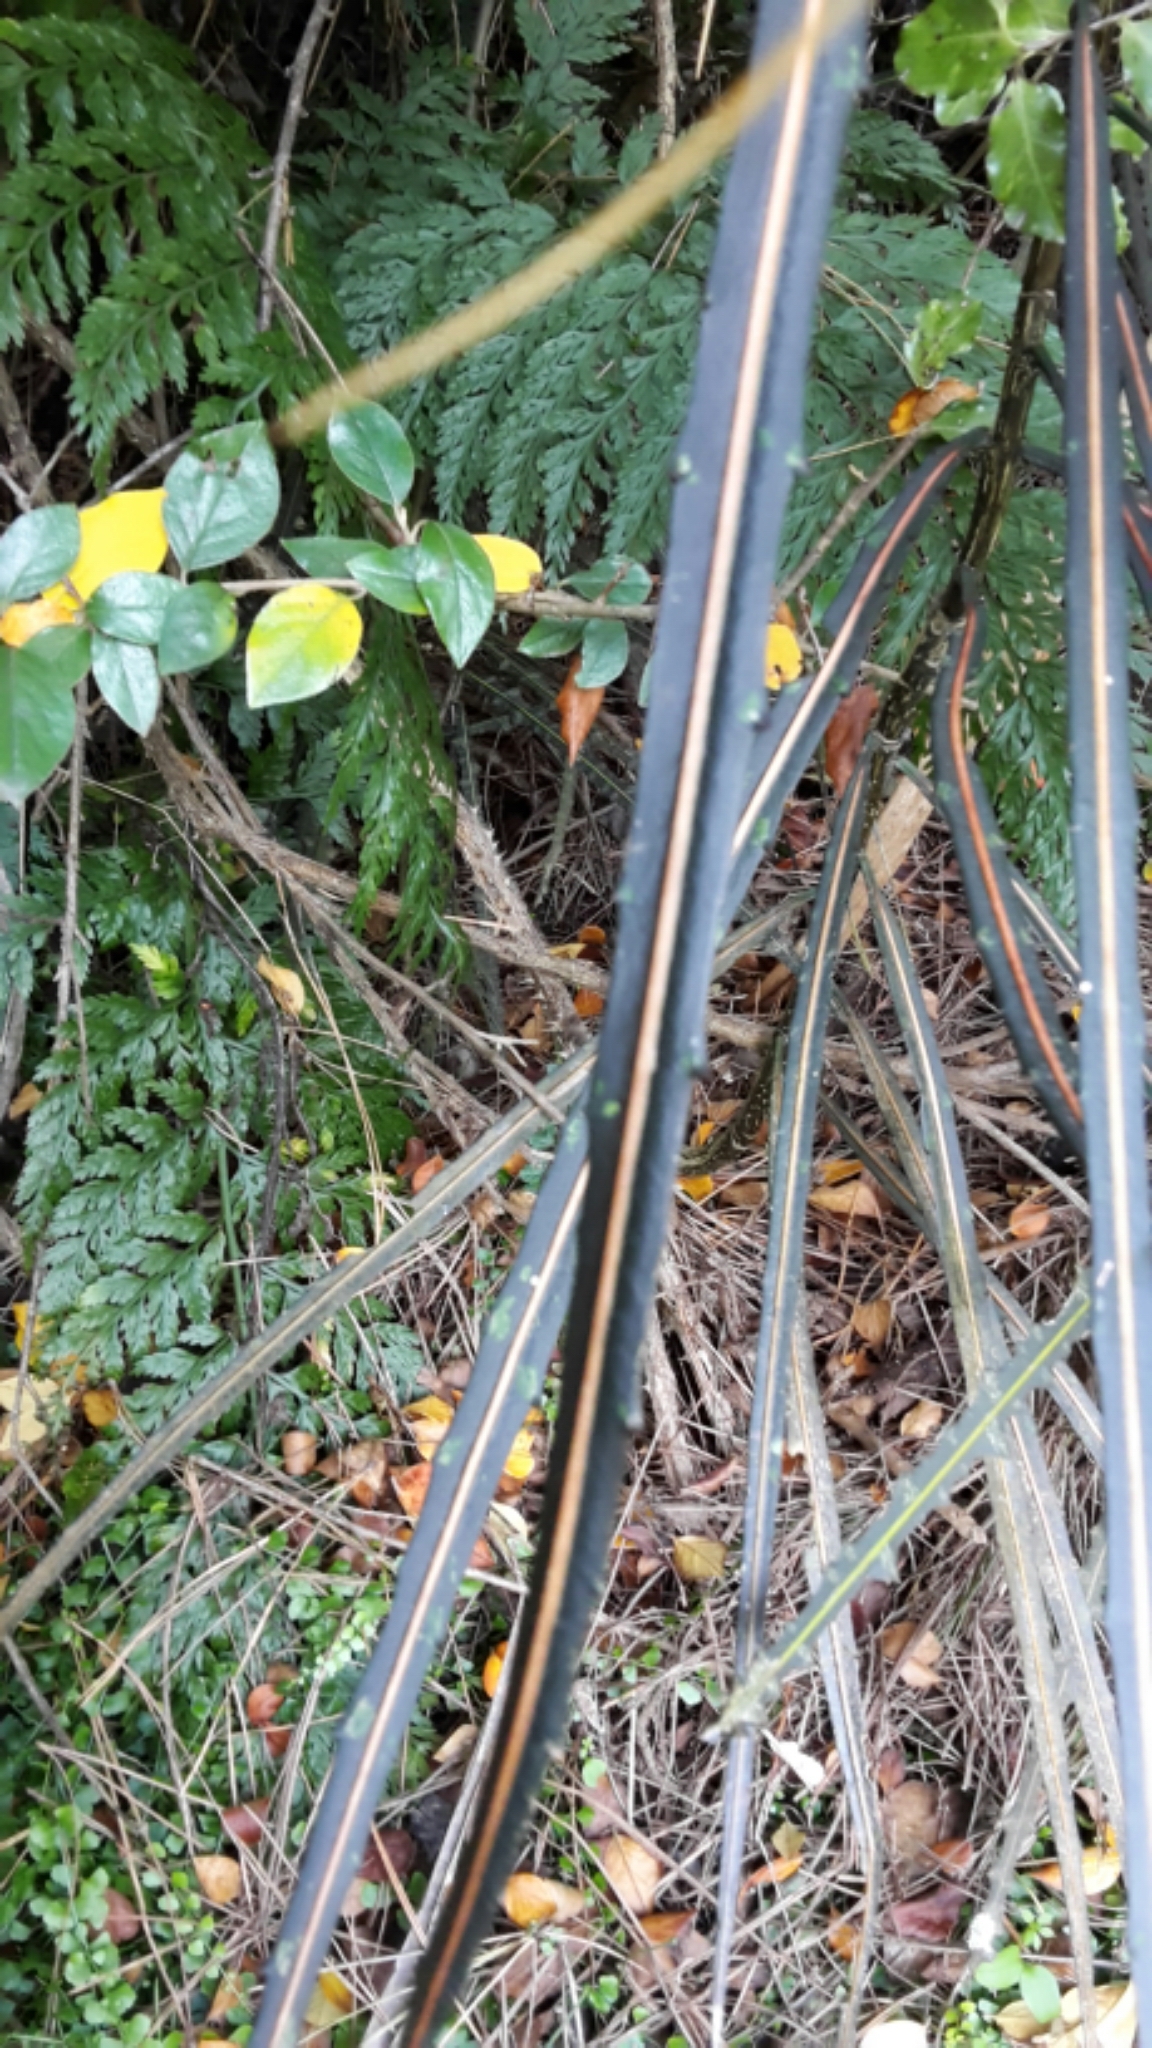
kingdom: Plantae
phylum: Tracheophyta
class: Magnoliopsida
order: Apiales
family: Araliaceae
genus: Pseudopanax
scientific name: Pseudopanax crassifolius
